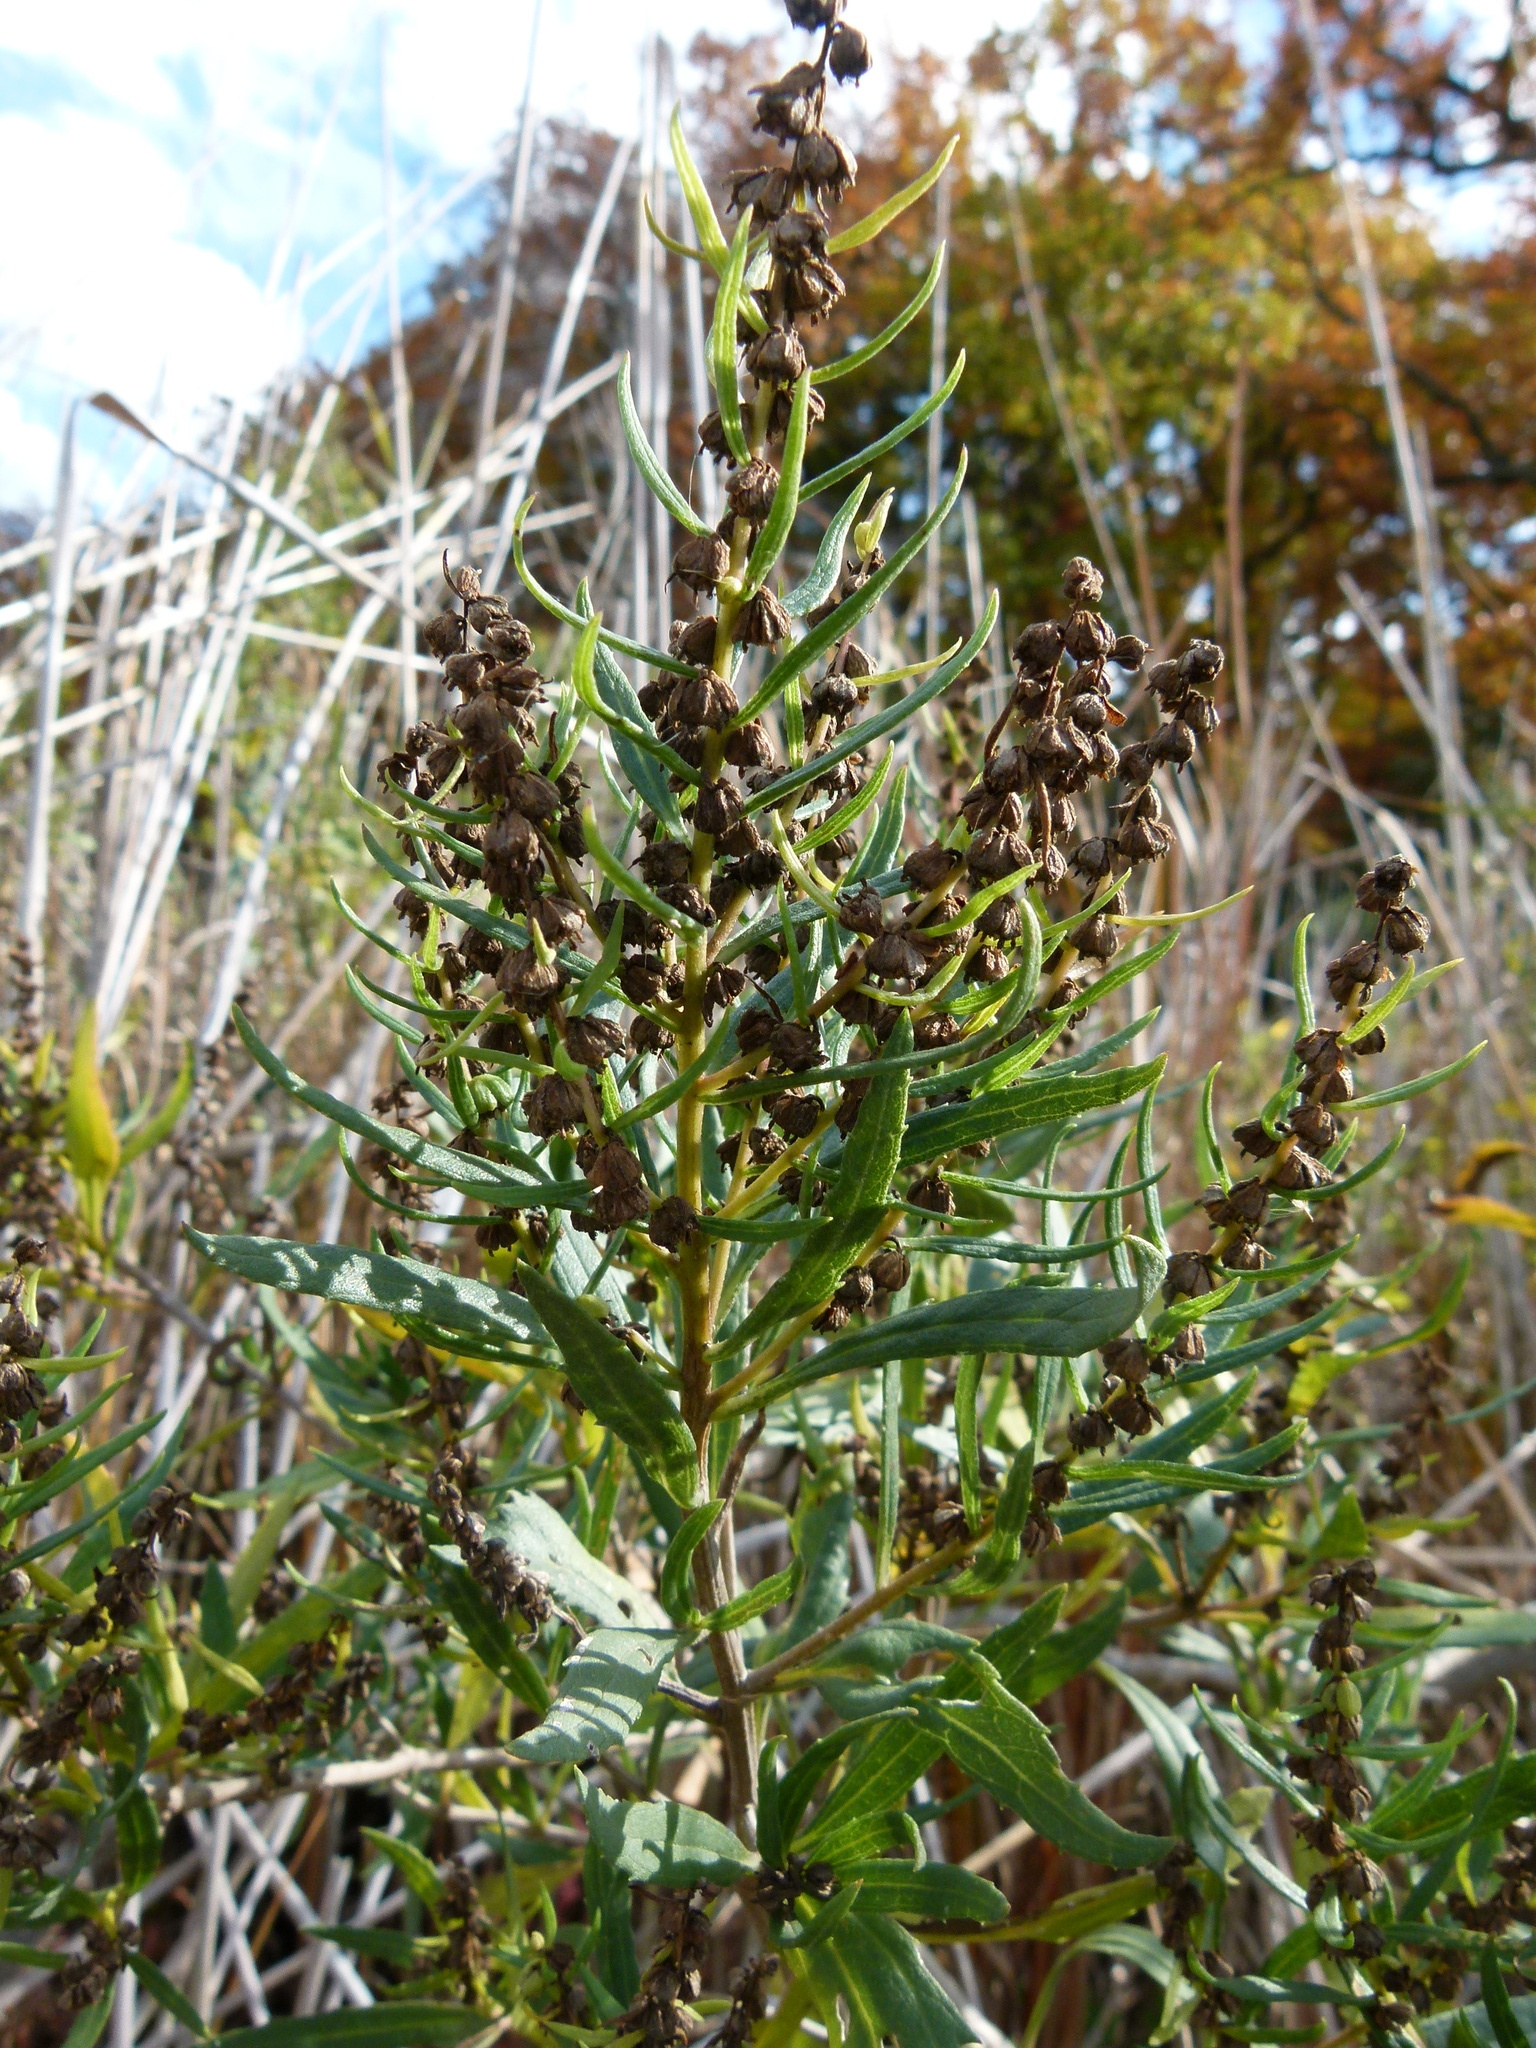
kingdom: Plantae
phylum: Tracheophyta
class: Magnoliopsida
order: Asterales
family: Asteraceae
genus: Iva
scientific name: Iva frutescens
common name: Big-leaved marsh-elder
